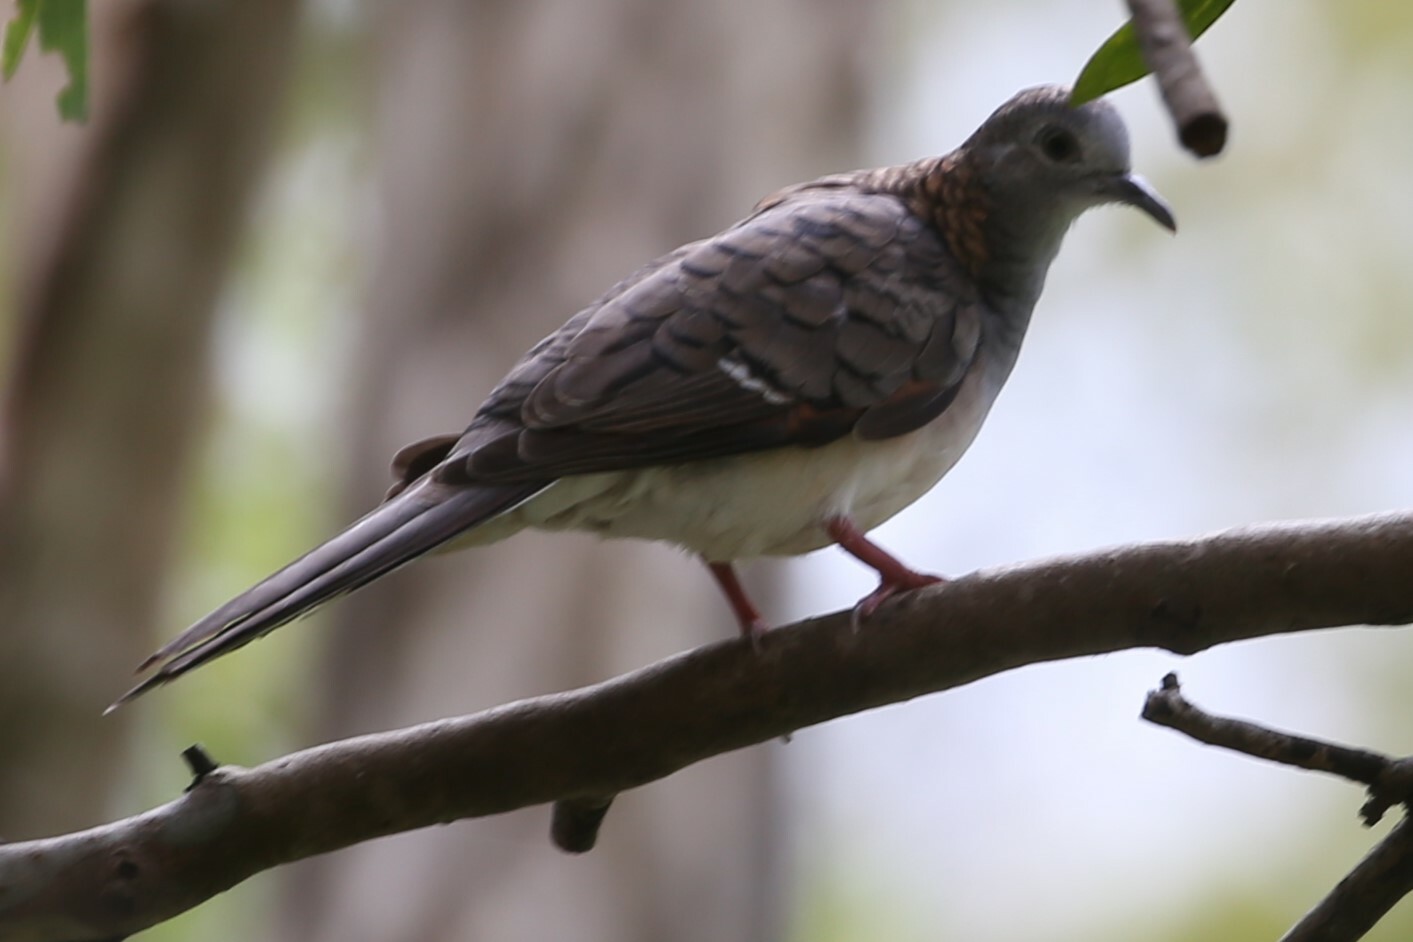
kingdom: Animalia
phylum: Chordata
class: Aves
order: Columbiformes
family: Columbidae
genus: Geopelia
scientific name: Geopelia humeralis
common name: Bar-shouldered dove
